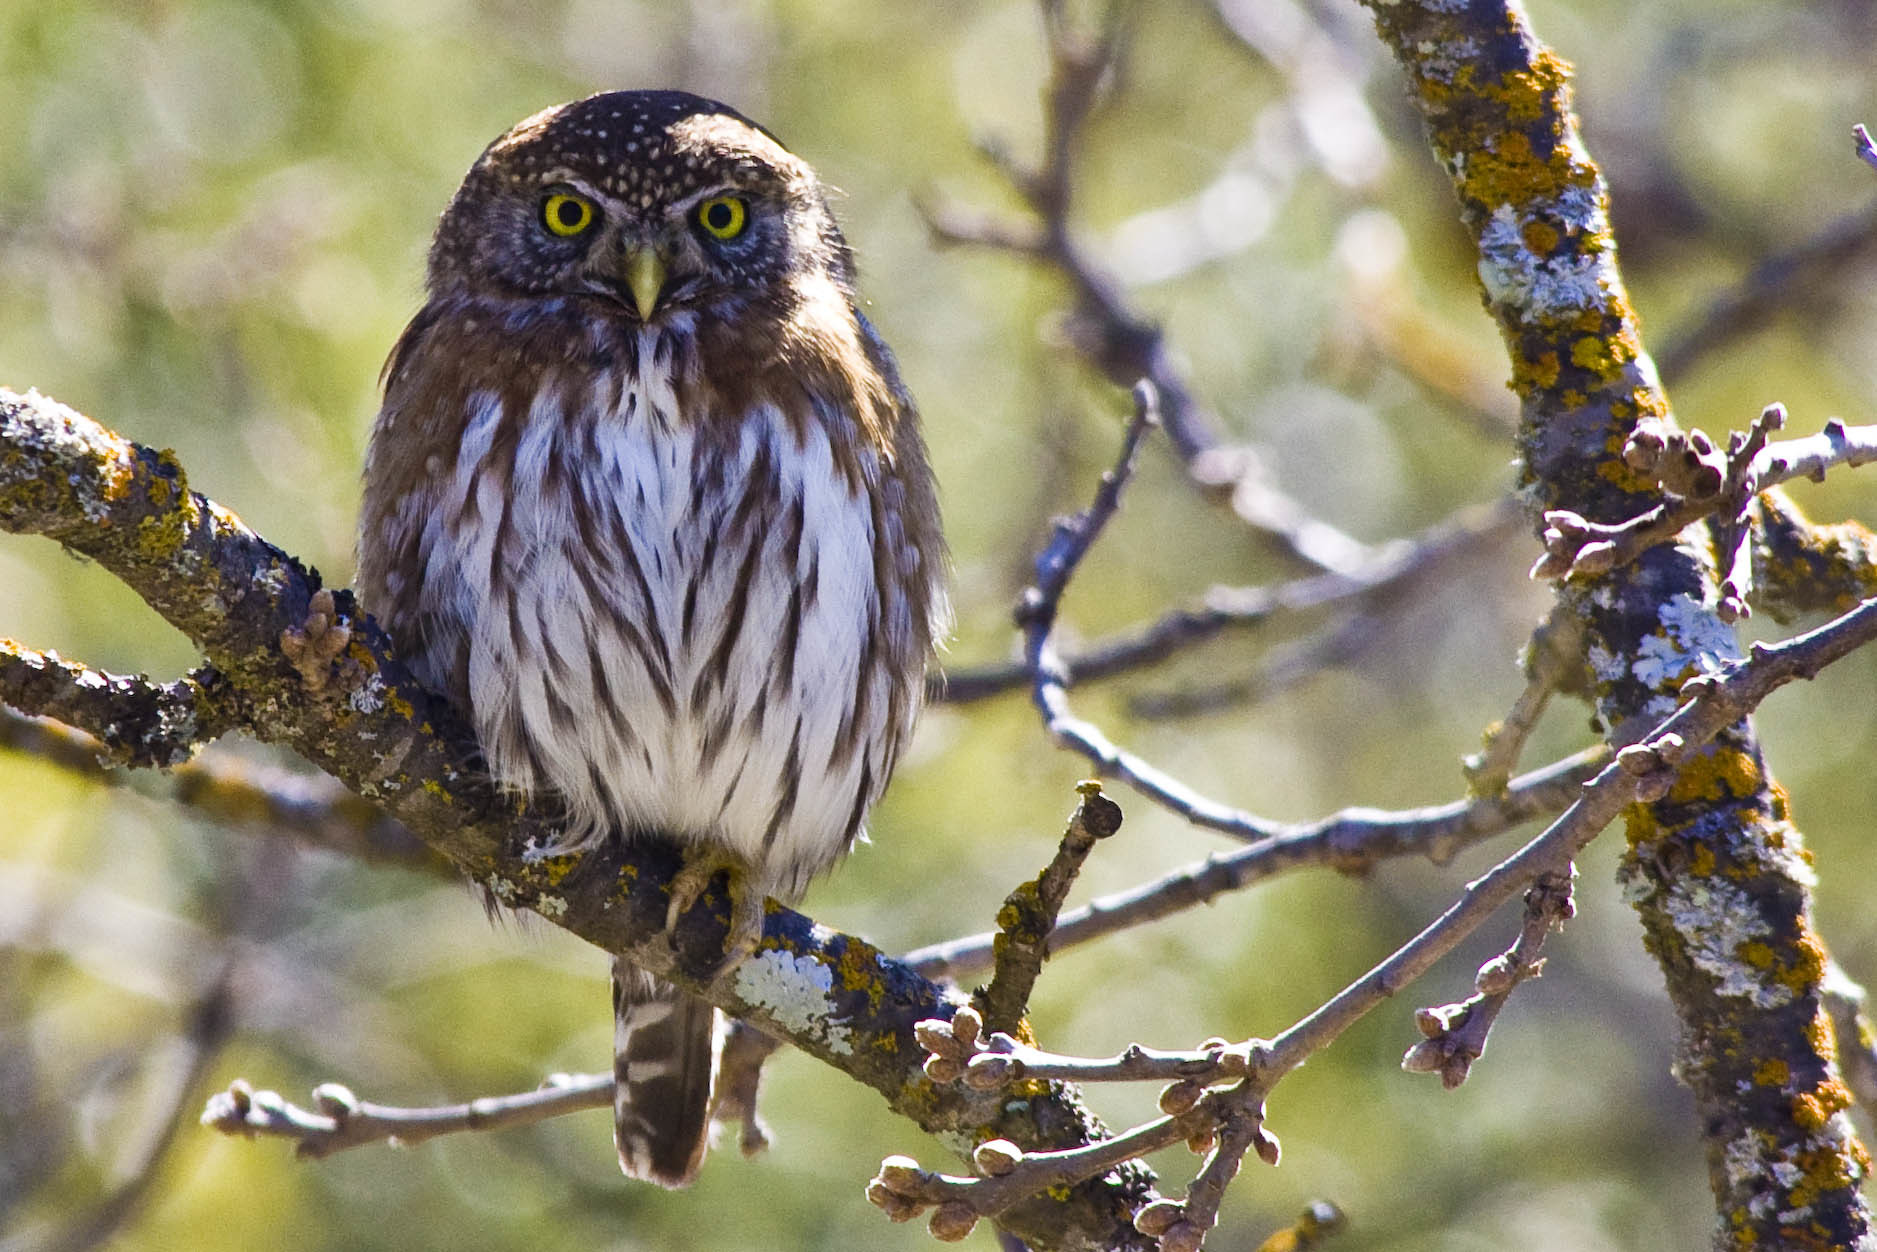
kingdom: Animalia
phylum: Chordata
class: Aves
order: Strigiformes
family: Strigidae
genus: Glaucidium
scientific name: Glaucidium gnoma
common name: Northern pygmy-owl
